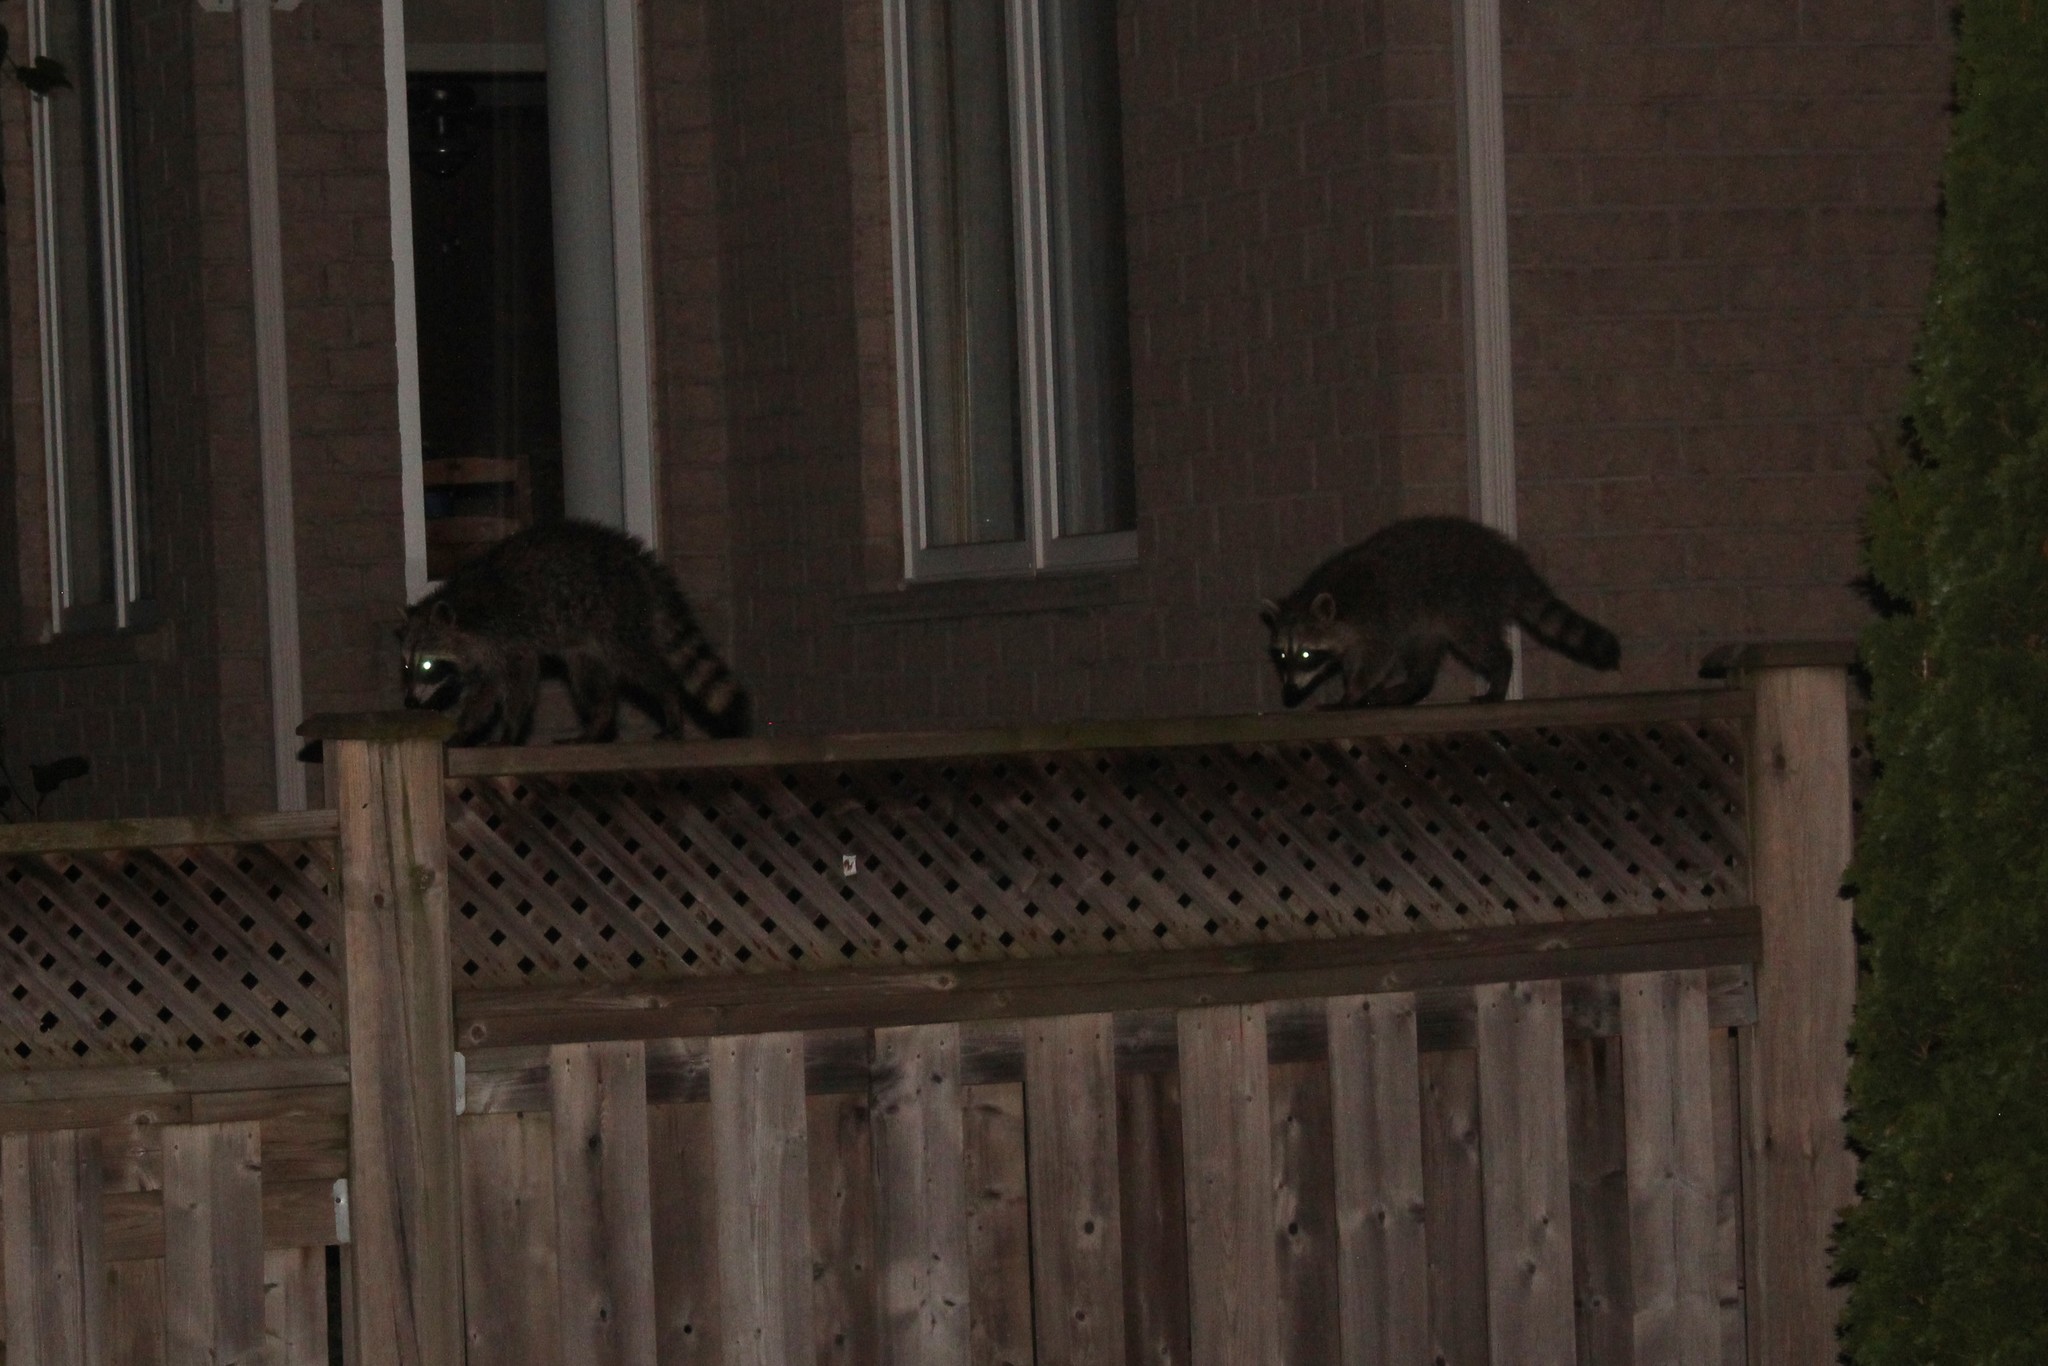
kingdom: Animalia
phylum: Chordata
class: Mammalia
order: Carnivora
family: Procyonidae
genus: Procyon
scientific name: Procyon lotor
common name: Raccoon
